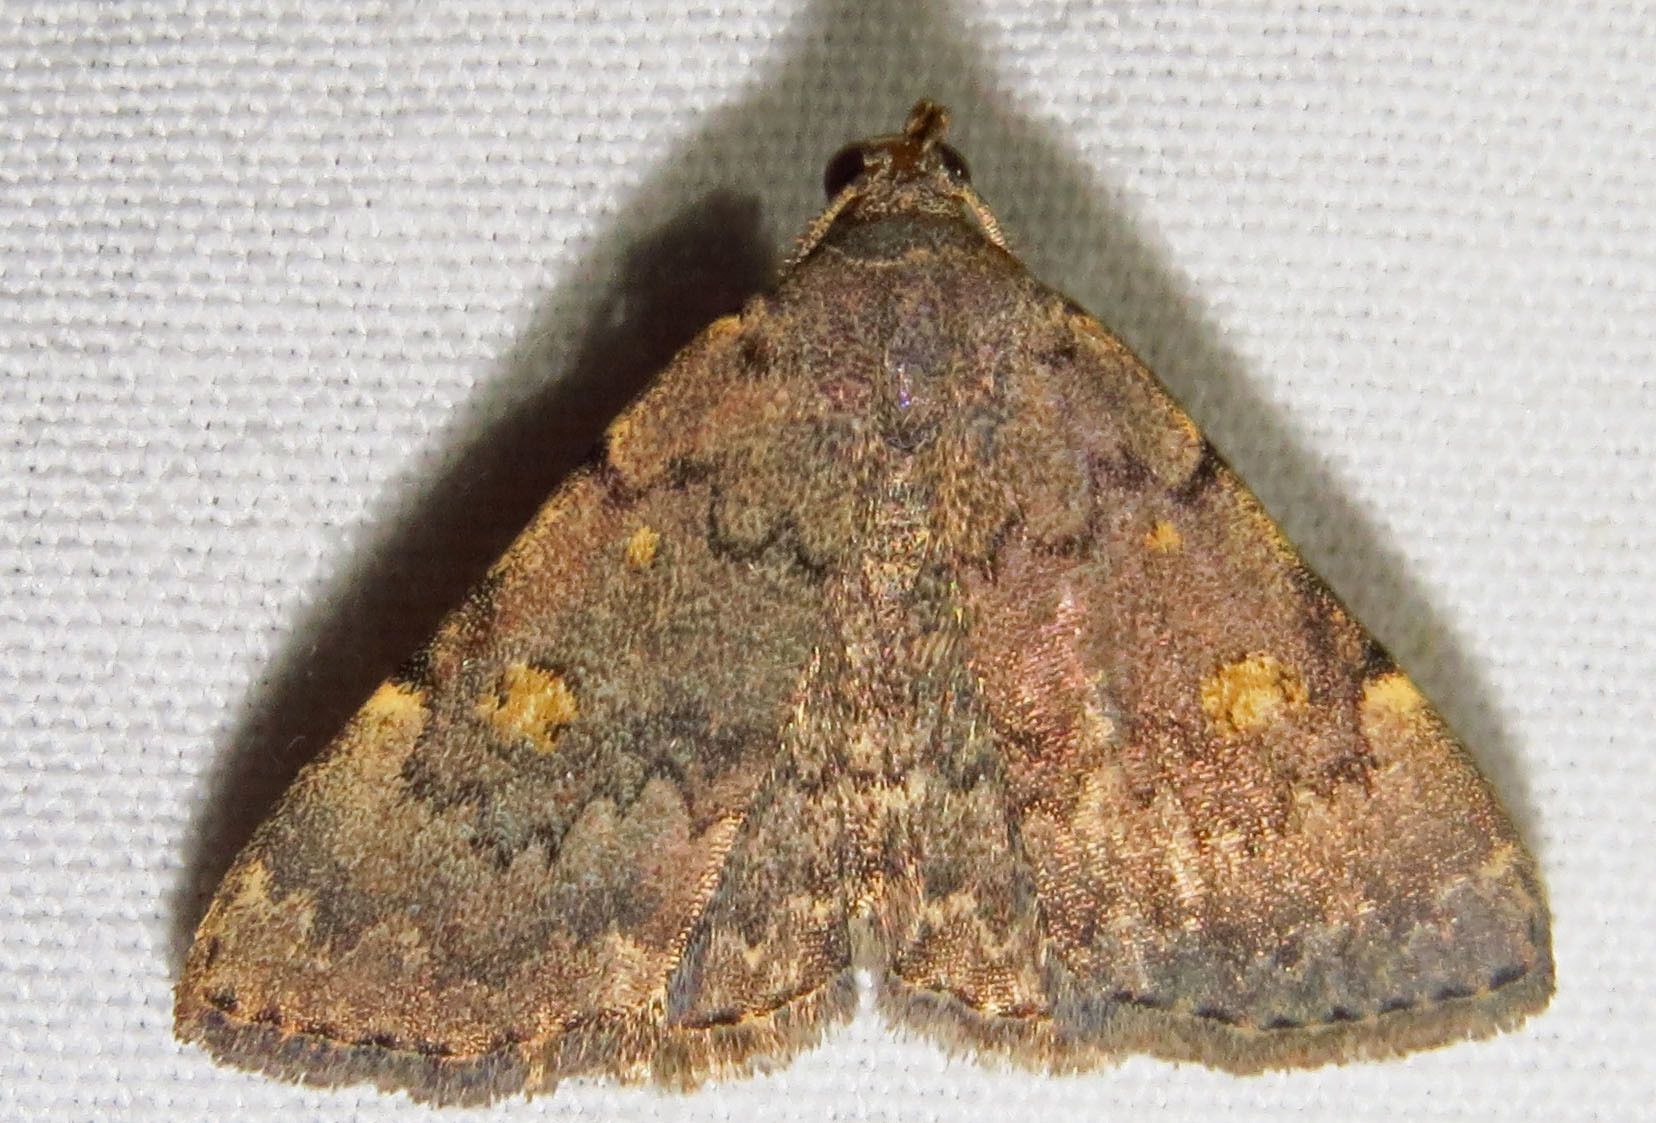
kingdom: Animalia
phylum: Arthropoda
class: Insecta
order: Lepidoptera
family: Erebidae
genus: Idia
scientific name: Idia aemula
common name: Common idia moth
